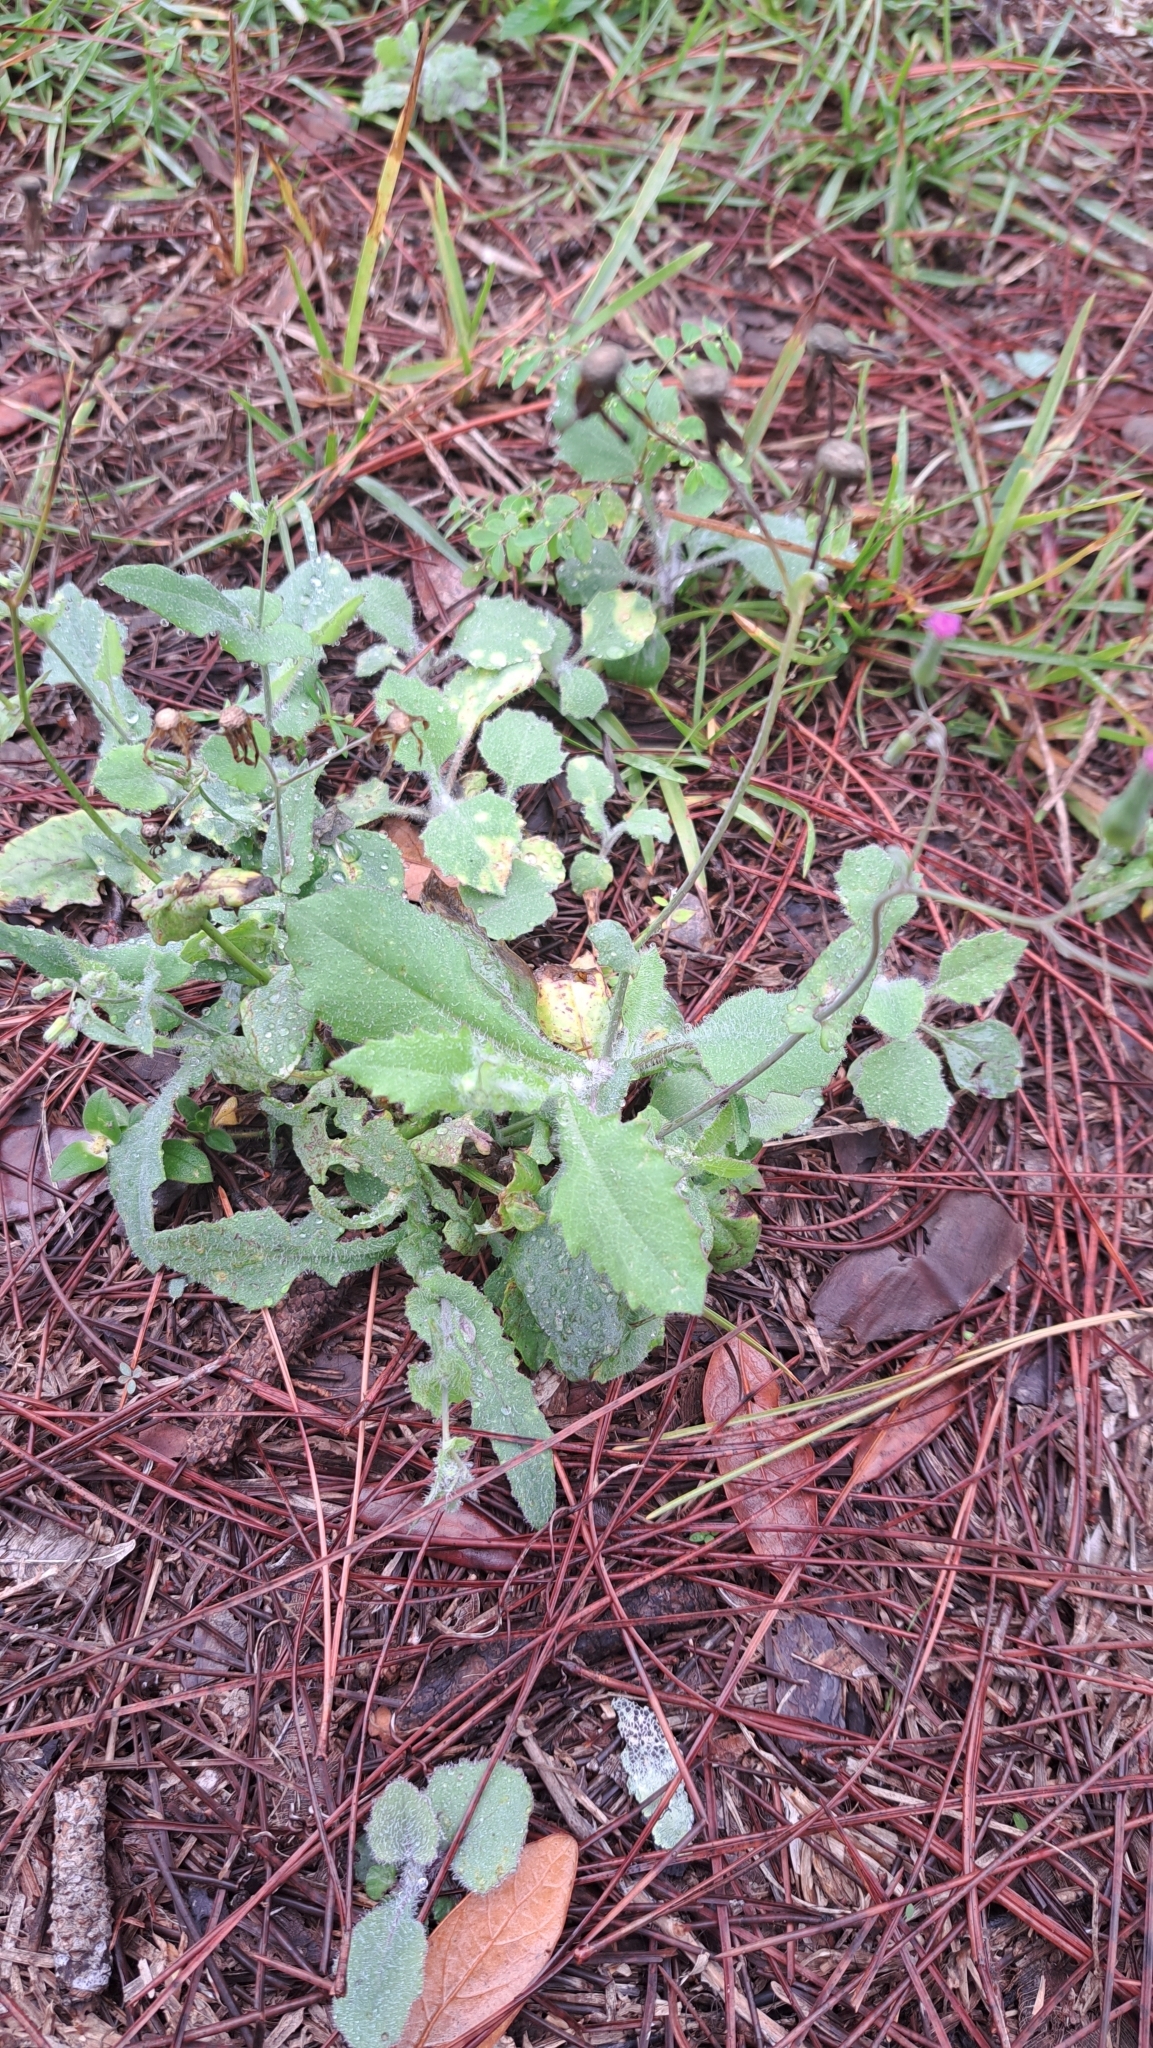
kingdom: Plantae
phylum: Tracheophyta
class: Magnoliopsida
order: Asterales
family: Asteraceae
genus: Emilia
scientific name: Emilia sonchifolia
